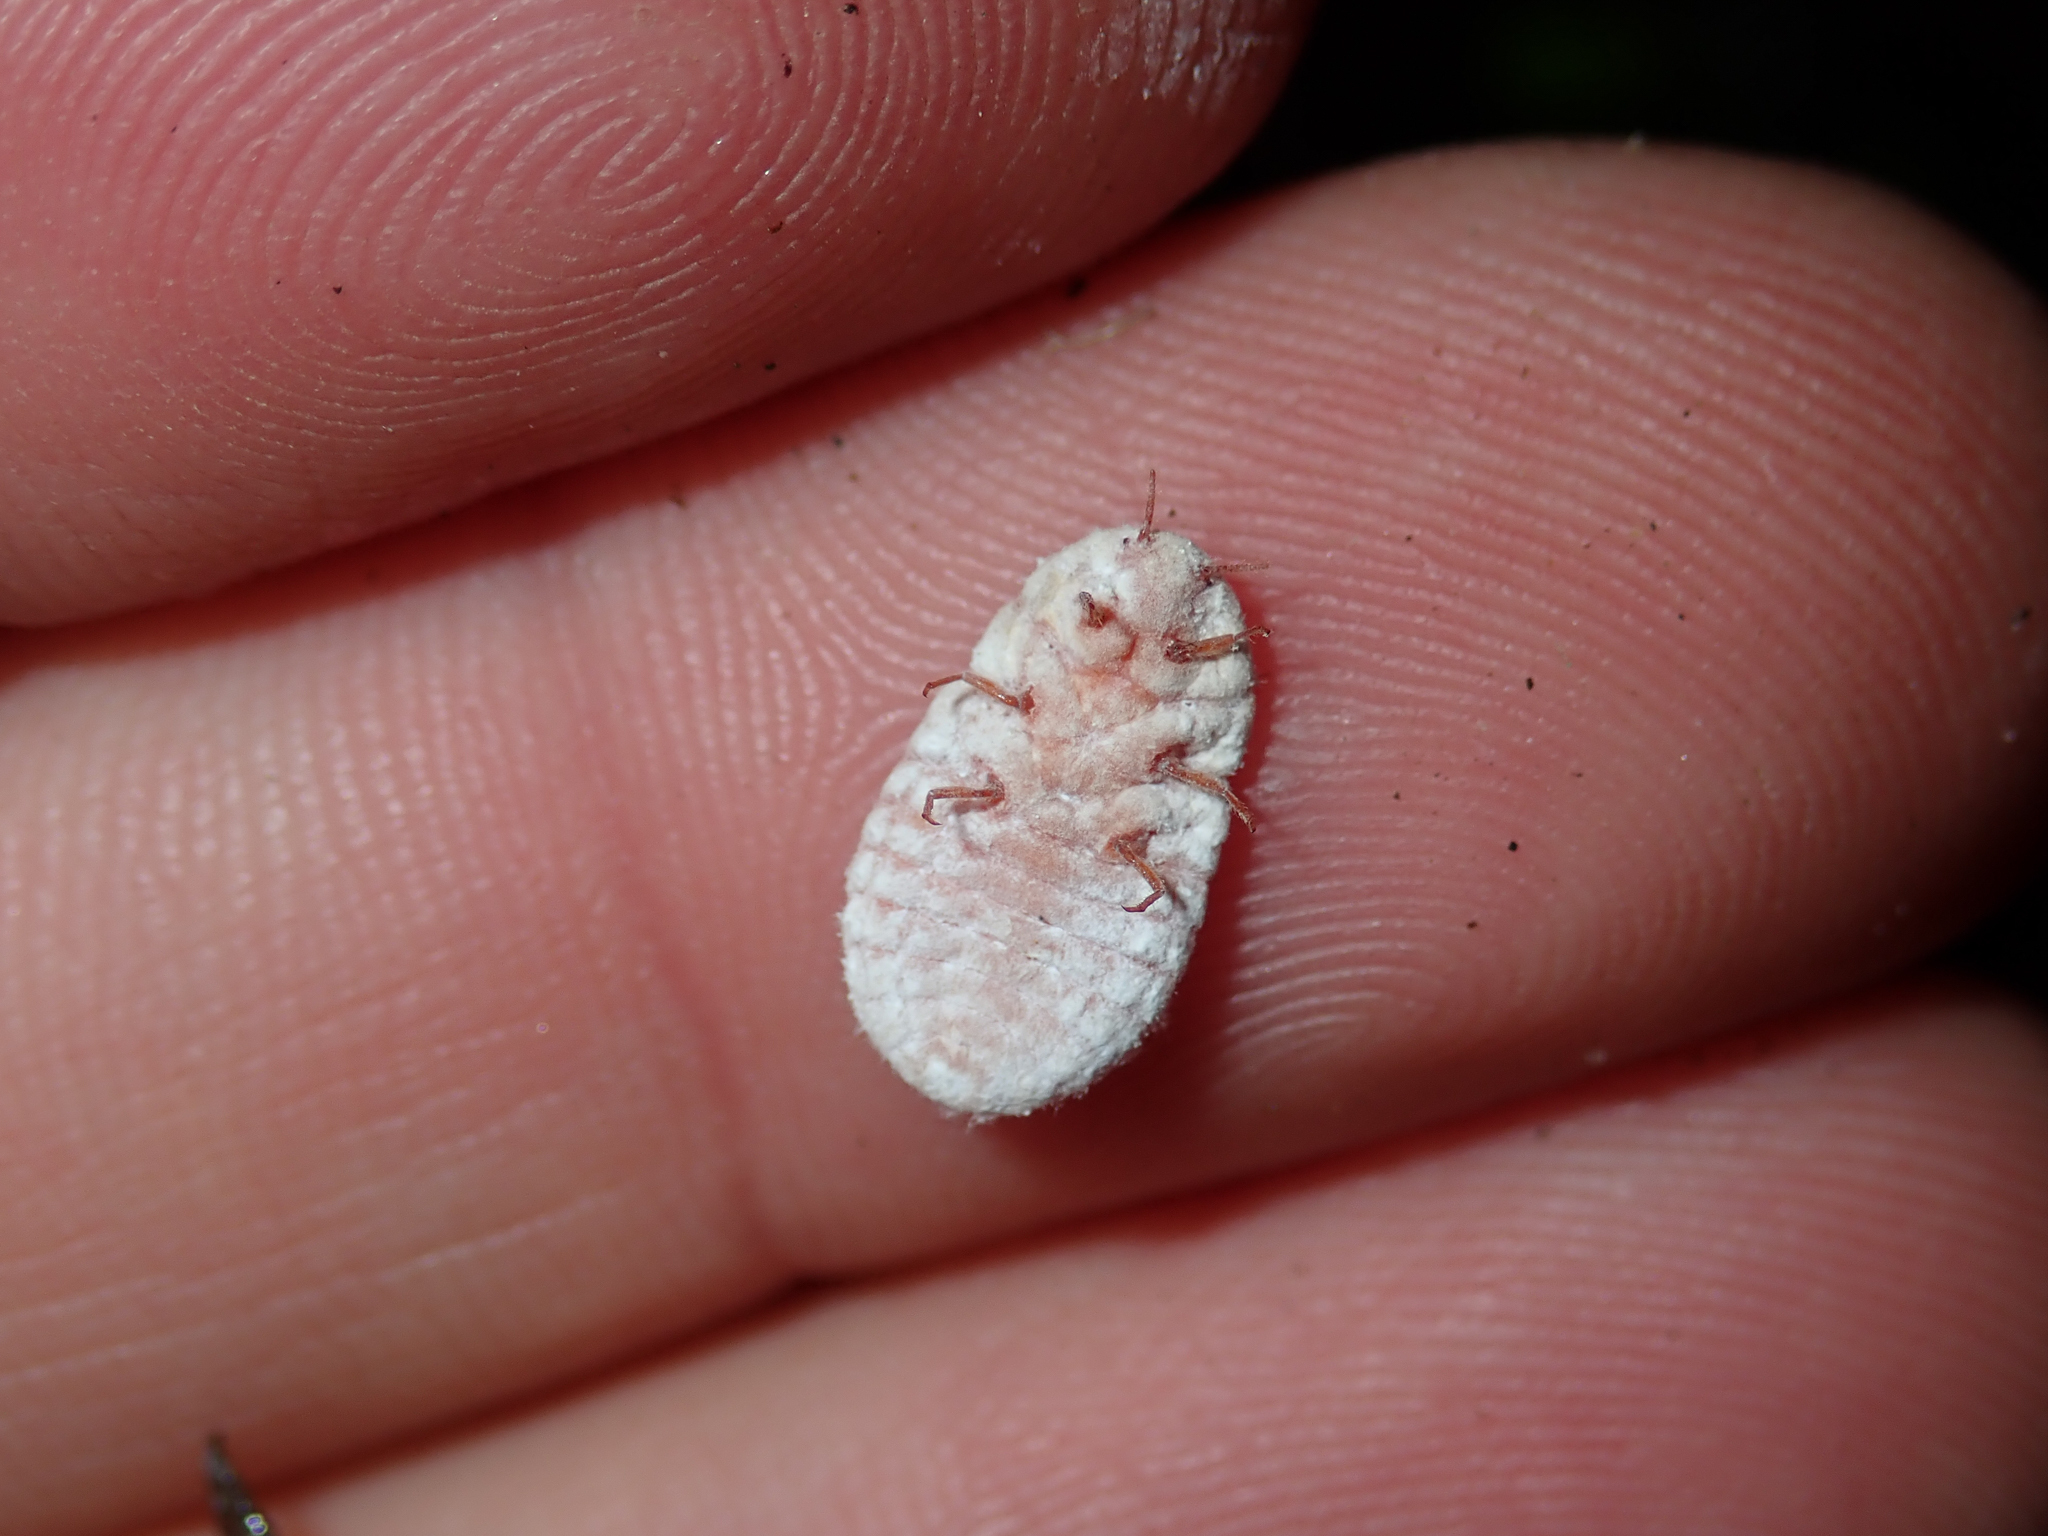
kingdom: Animalia
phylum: Arthropoda
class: Insecta
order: Hemiptera
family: Margarodidae
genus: Coelostomidia
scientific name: Coelostomidia zealandica
